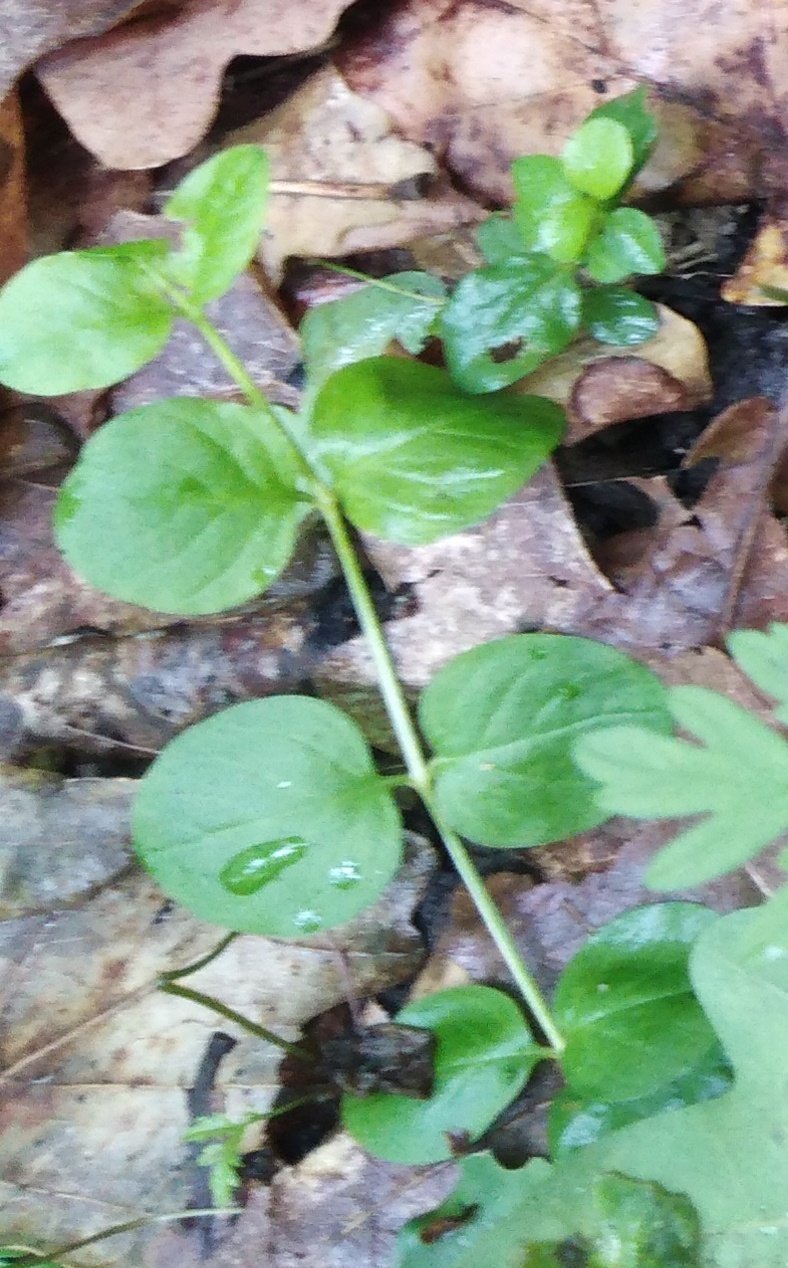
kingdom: Plantae
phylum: Tracheophyta
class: Magnoliopsida
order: Ericales
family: Primulaceae
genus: Lysimachia
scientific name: Lysimachia nummularia
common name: Moneywort
